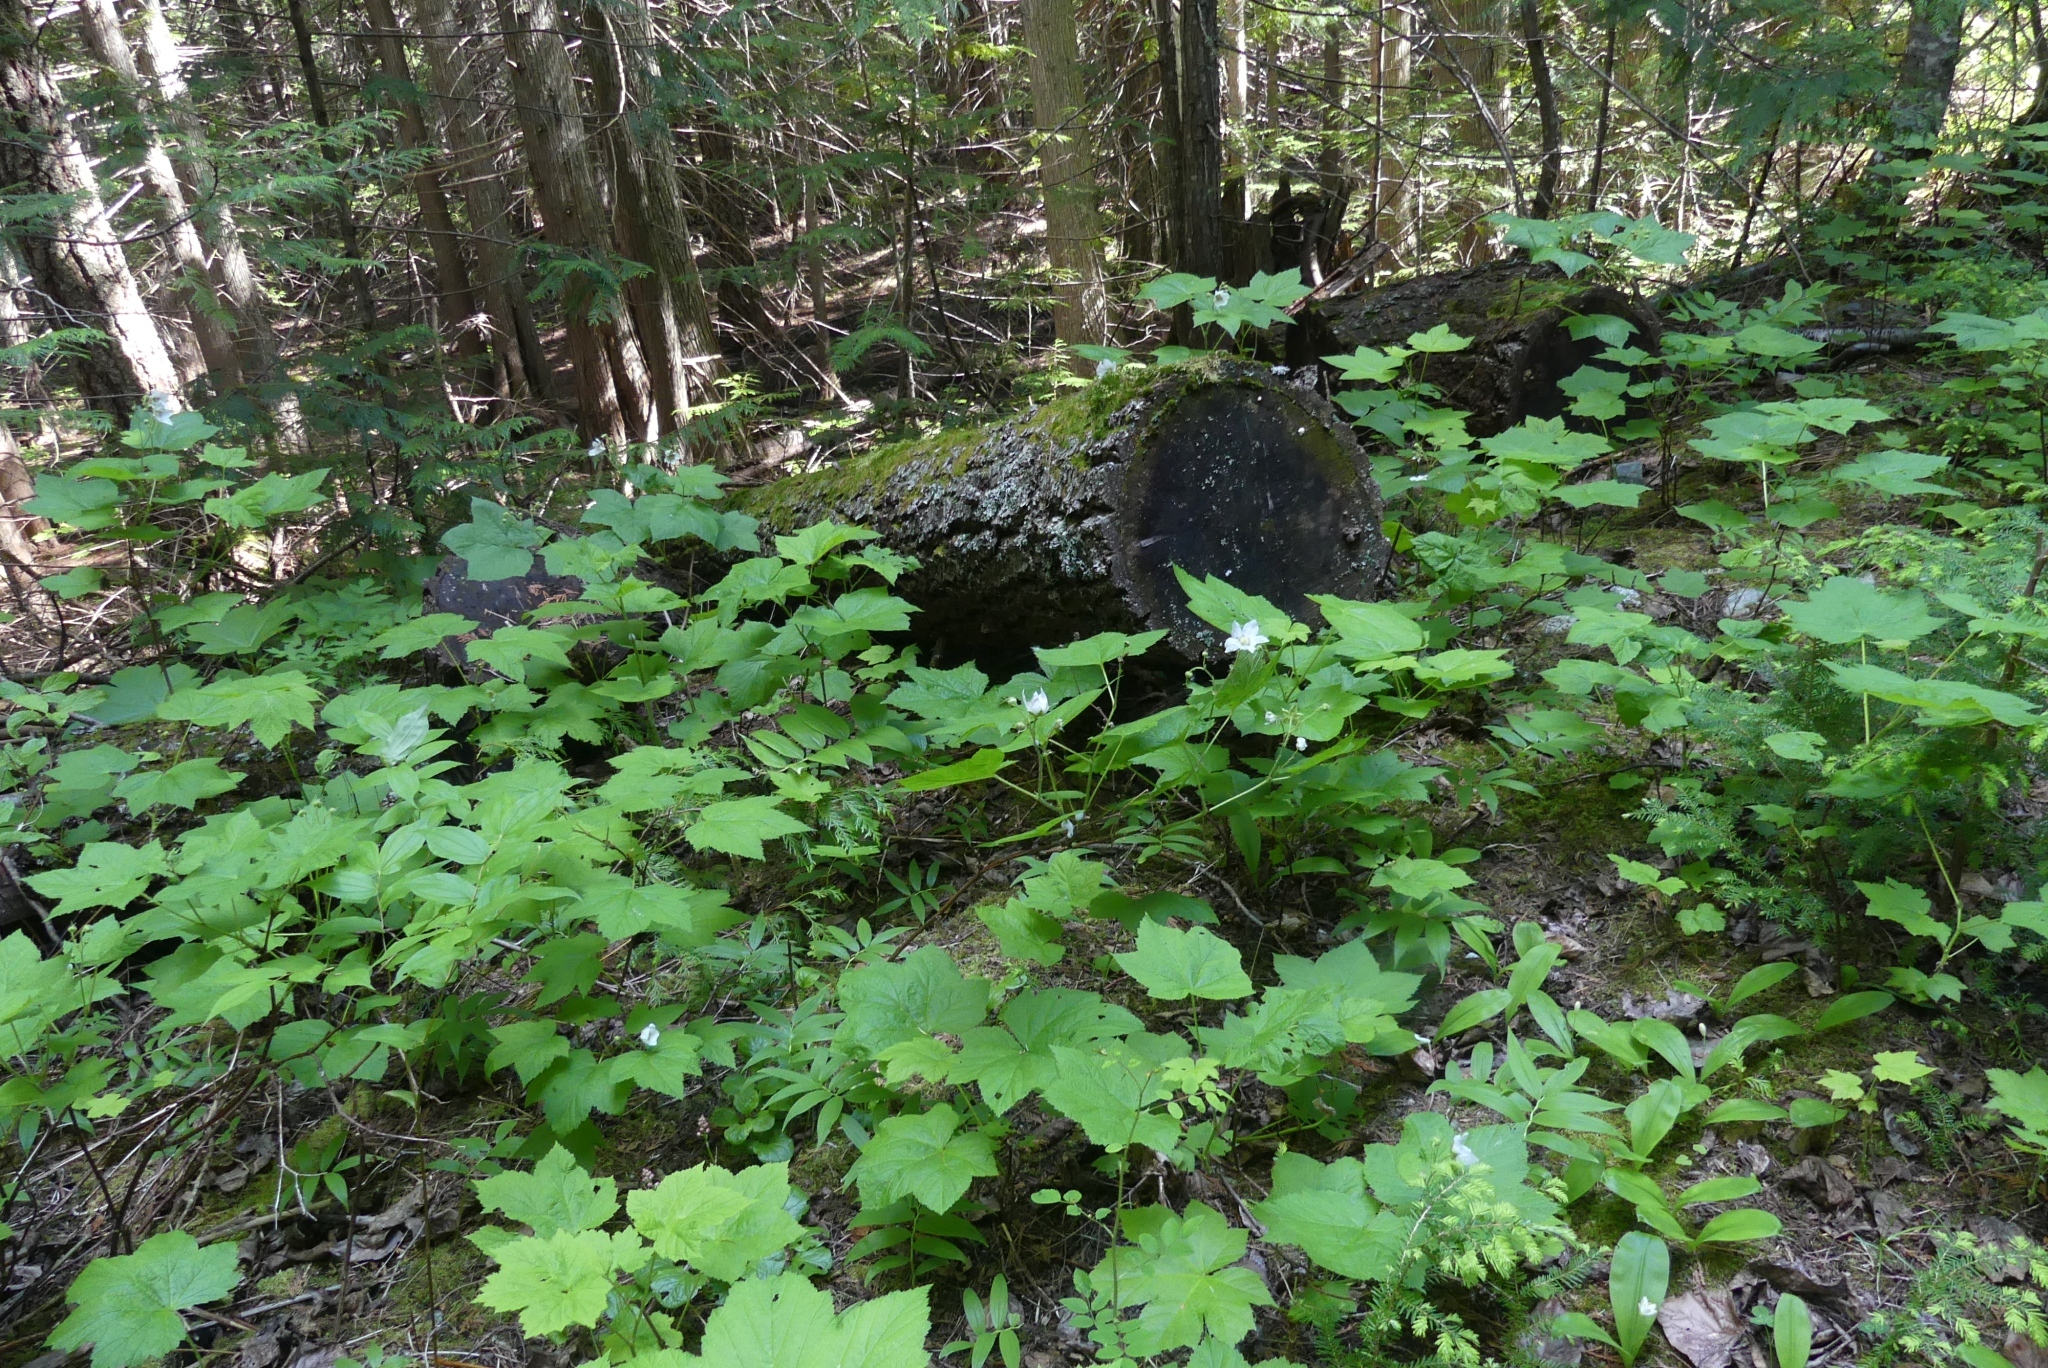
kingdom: Plantae
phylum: Tracheophyta
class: Magnoliopsida
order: Rosales
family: Rosaceae
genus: Rubus
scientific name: Rubus parviflorus
